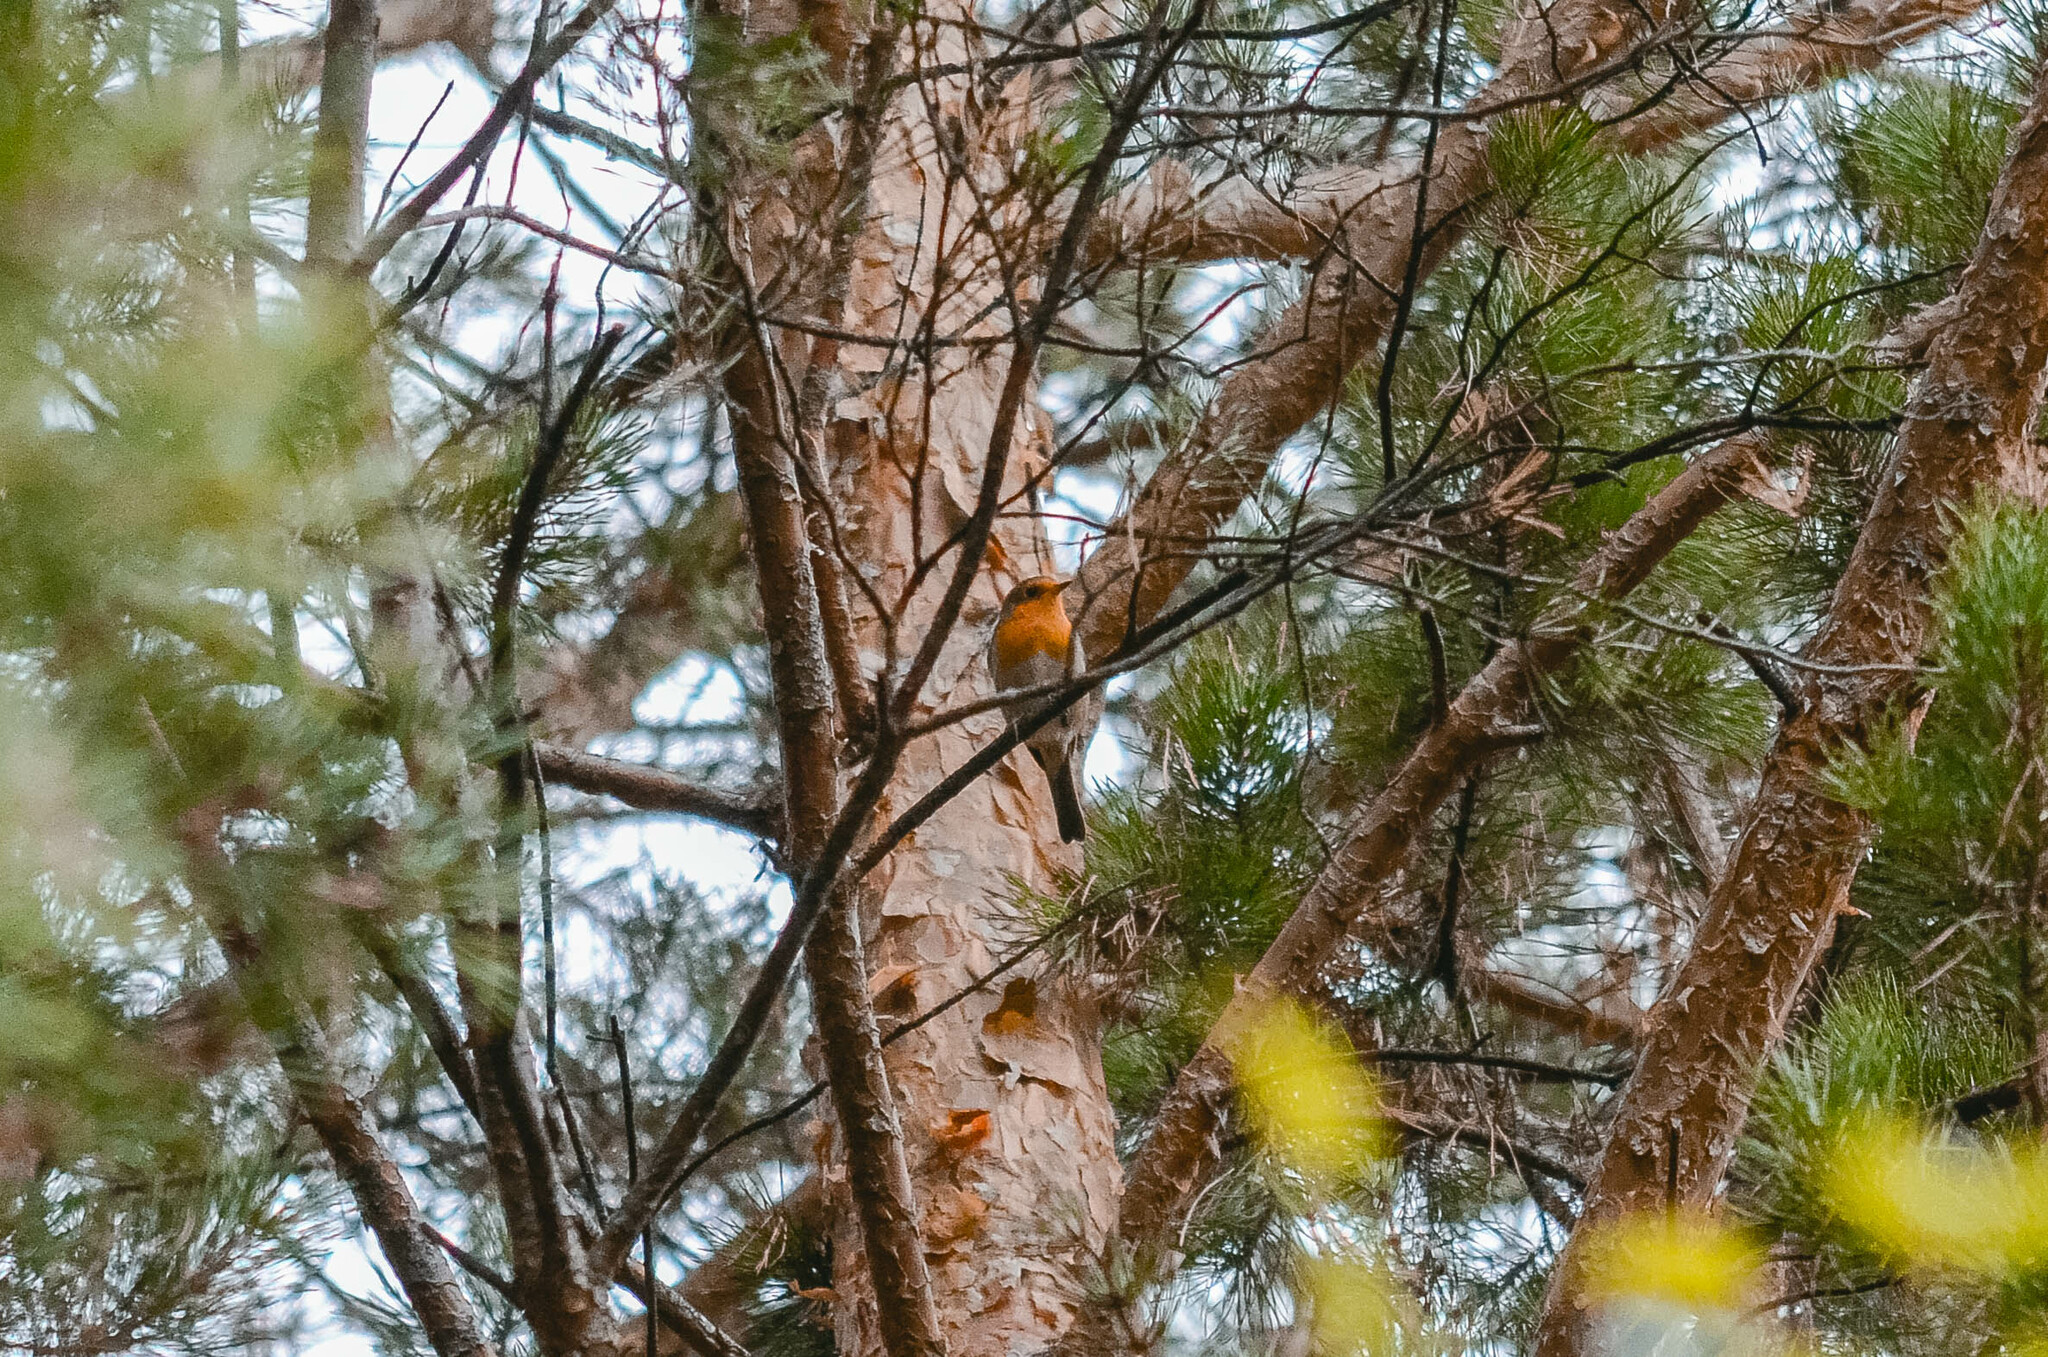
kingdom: Animalia
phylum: Chordata
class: Aves
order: Passeriformes
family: Muscicapidae
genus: Erithacus
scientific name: Erithacus rubecula
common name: European robin
